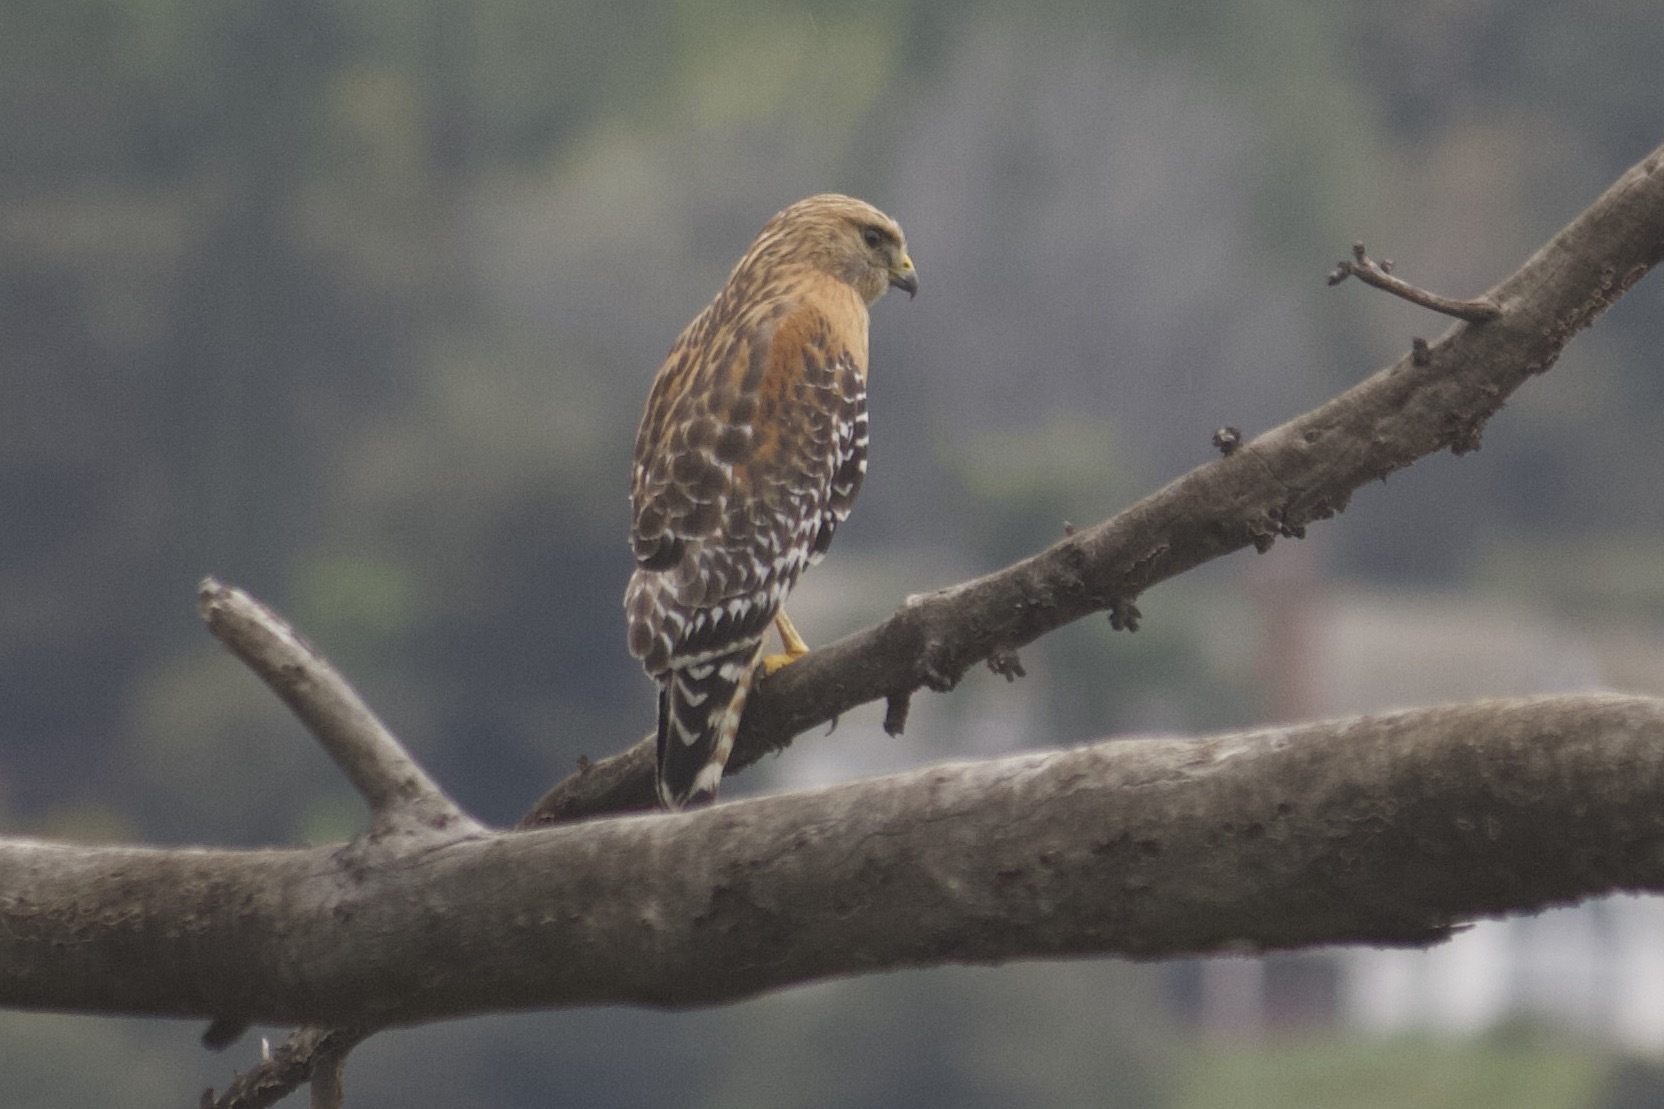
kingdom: Animalia
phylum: Chordata
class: Aves
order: Accipitriformes
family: Accipitridae
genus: Buteo
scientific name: Buteo lineatus
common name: Red-shouldered hawk
